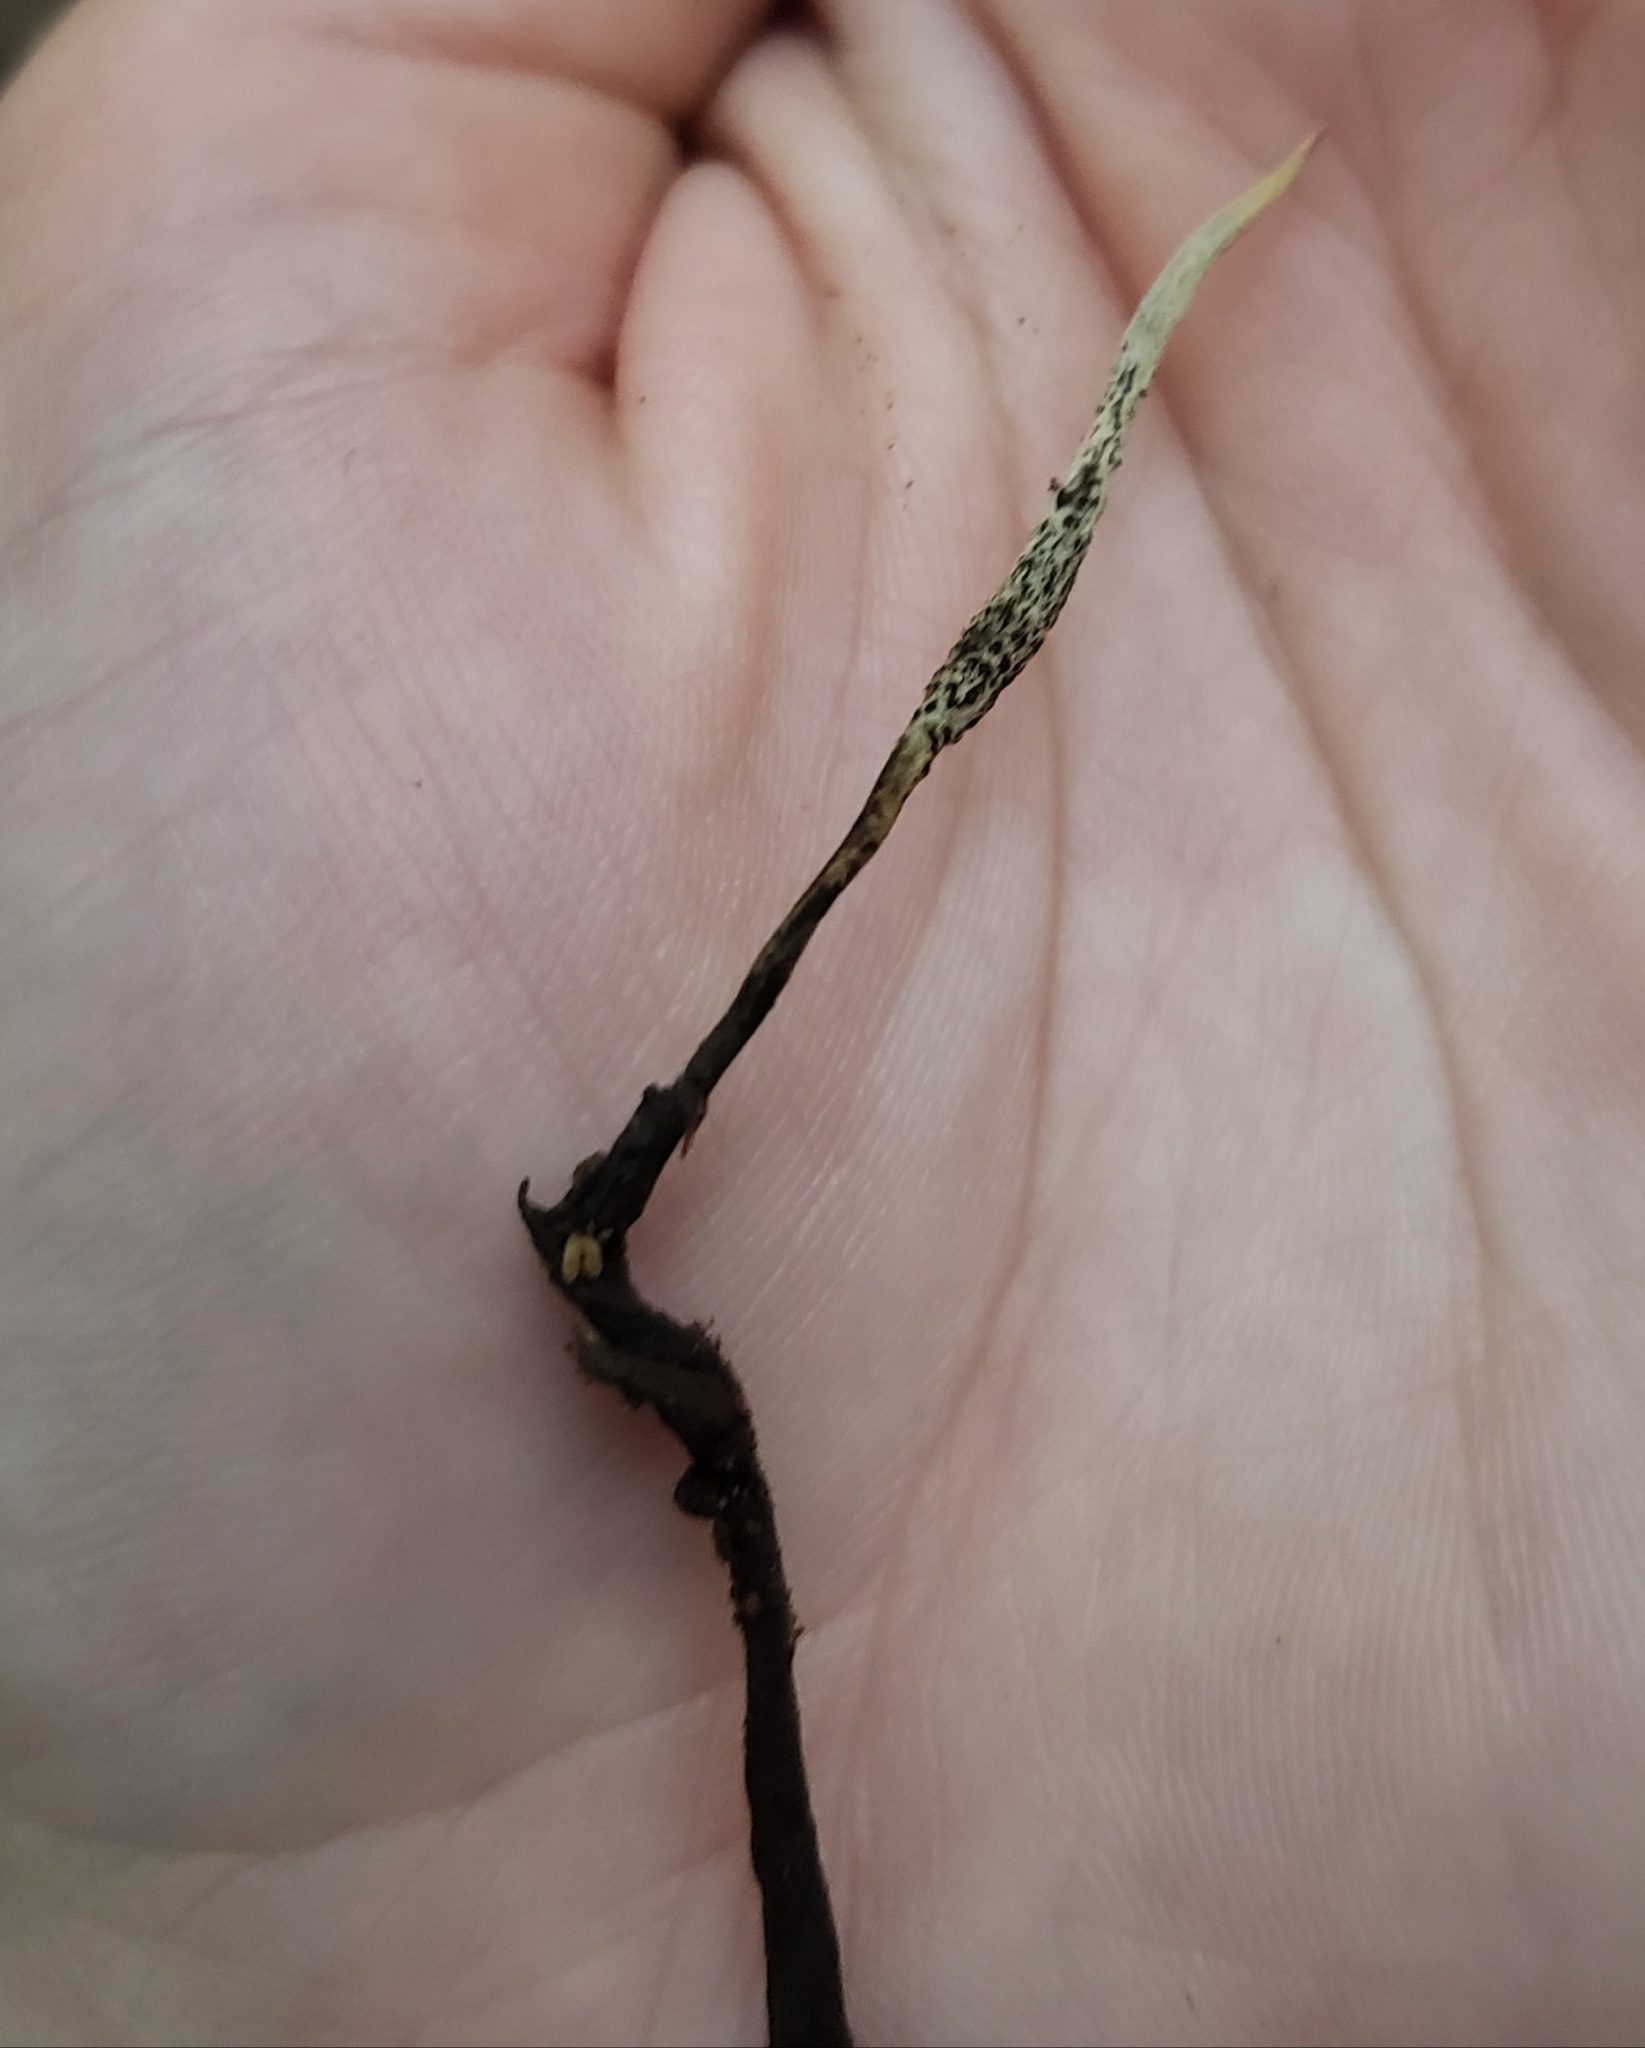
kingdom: Fungi
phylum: Ascomycota
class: Sordariomycetes
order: Hypocreales
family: Ophiocordycipitaceae
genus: Ophiocordyceps
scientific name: Ophiocordyceps stylophora
